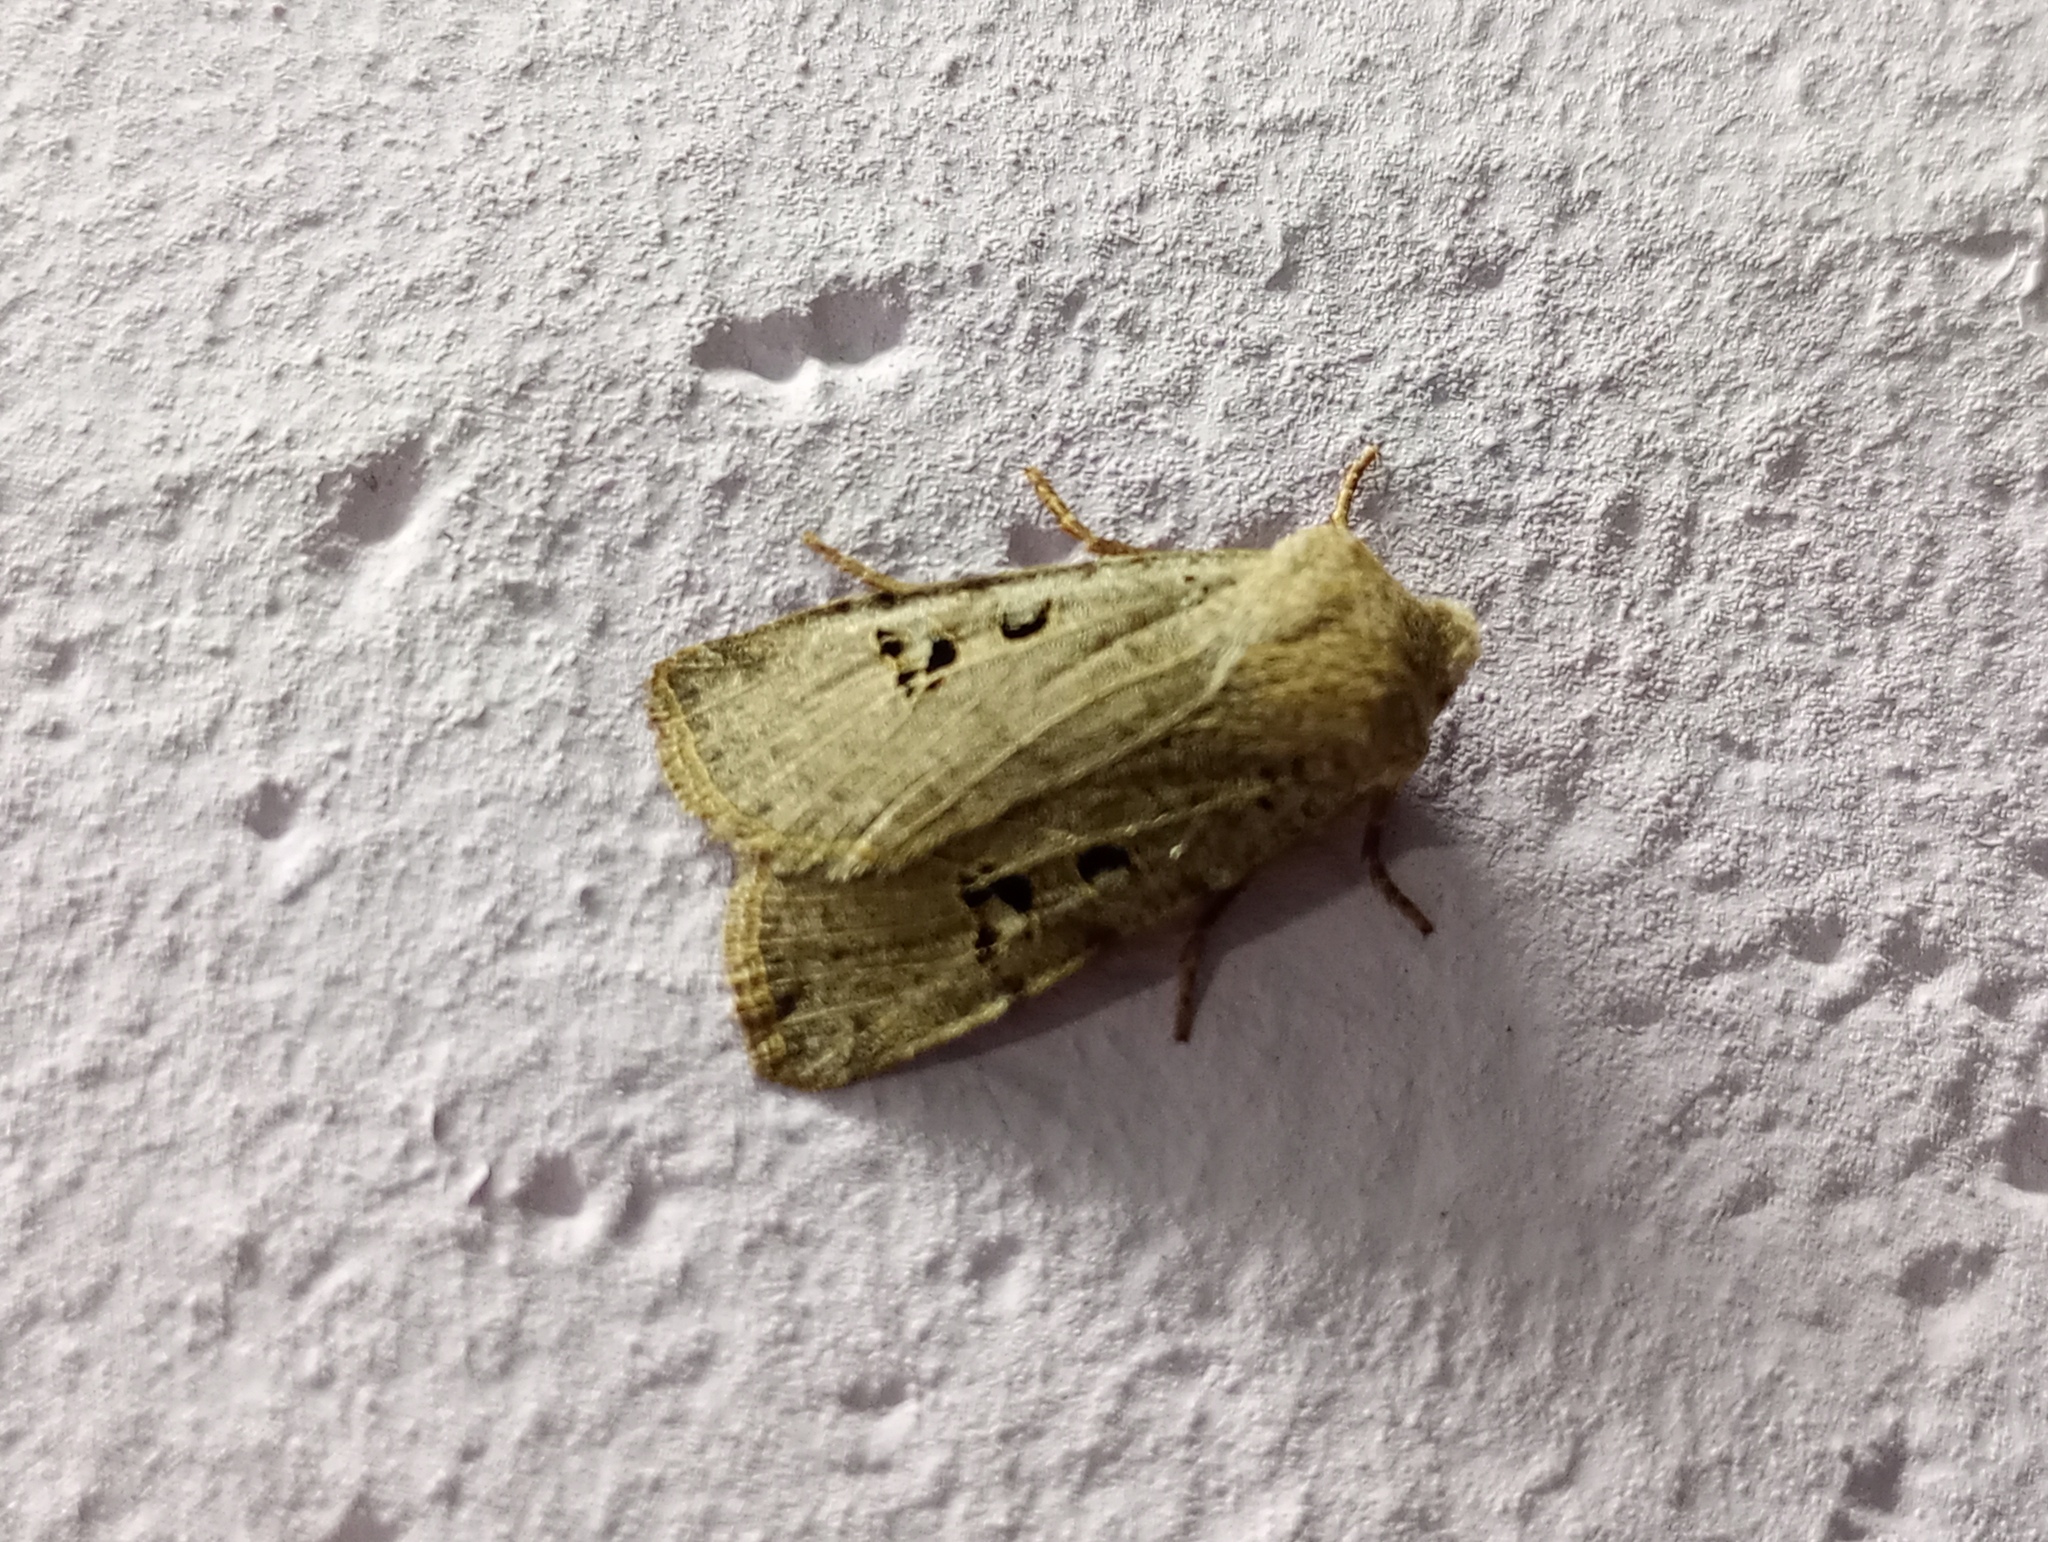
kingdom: Animalia
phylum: Arthropoda
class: Insecta
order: Lepidoptera
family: Noctuidae
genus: Conistra
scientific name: Conistra rubiginosa
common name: Black-spotted chestnut
